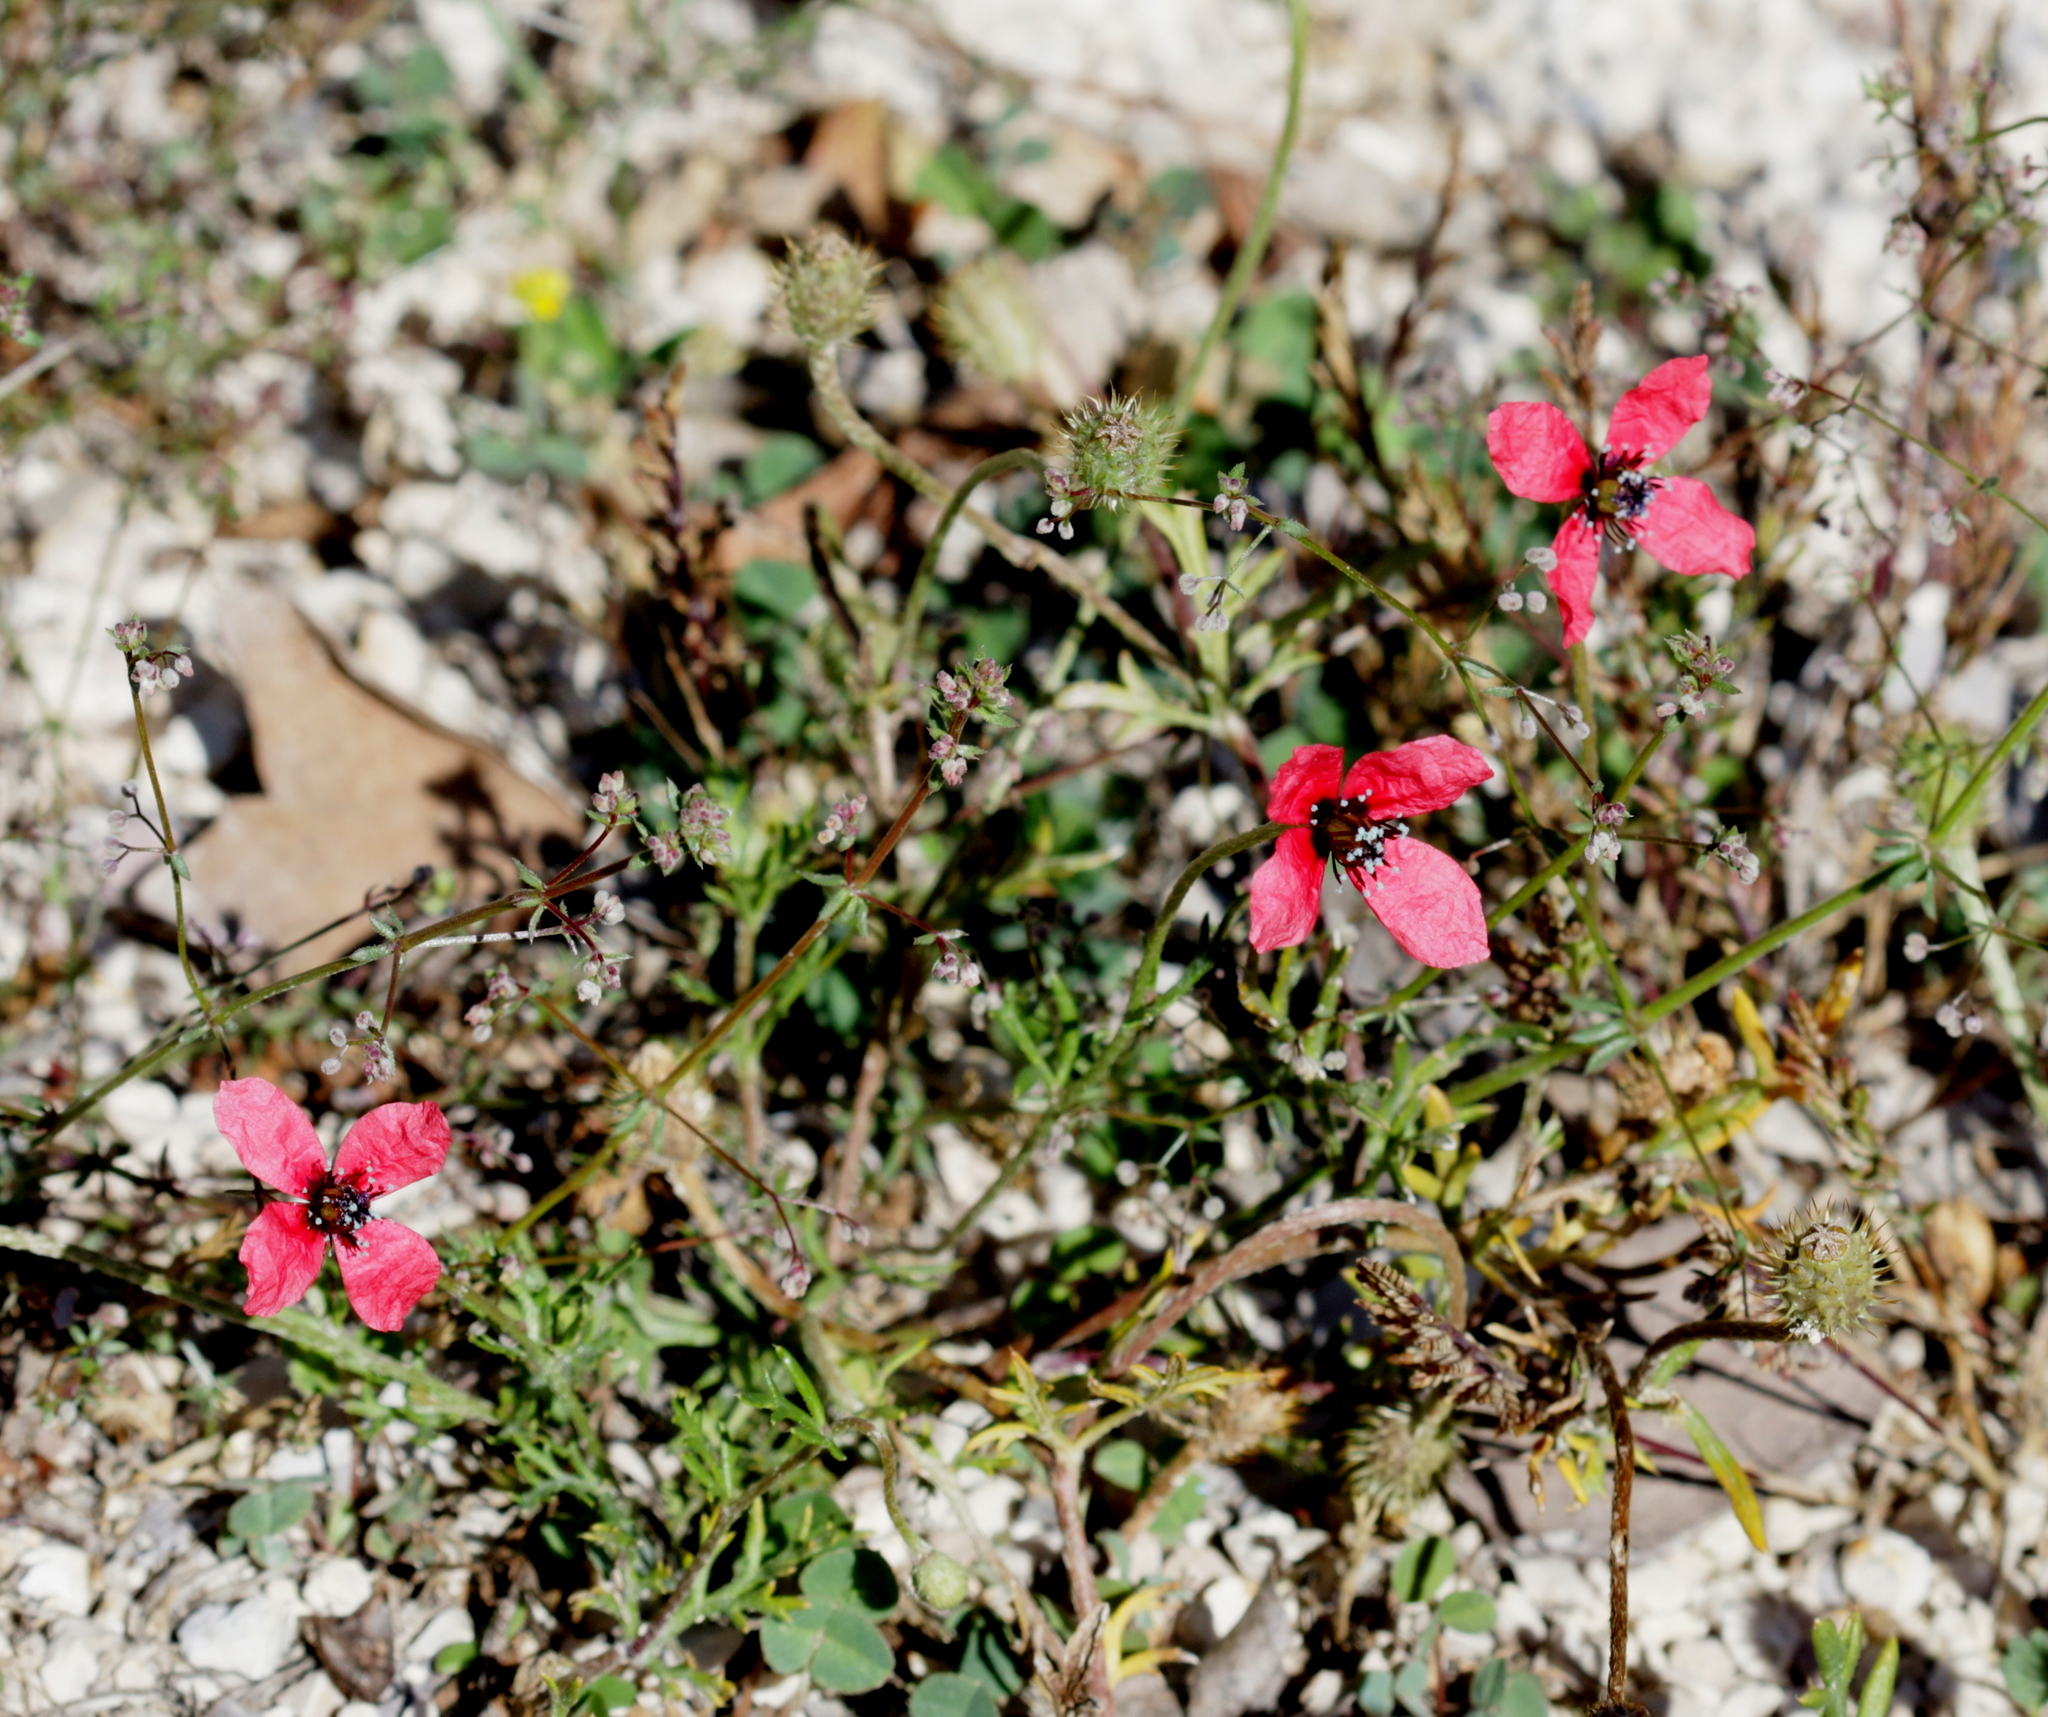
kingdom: Plantae
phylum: Tracheophyta
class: Magnoliopsida
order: Ranunculales
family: Papaveraceae
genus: Roemeria
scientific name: Roemeria hispida
